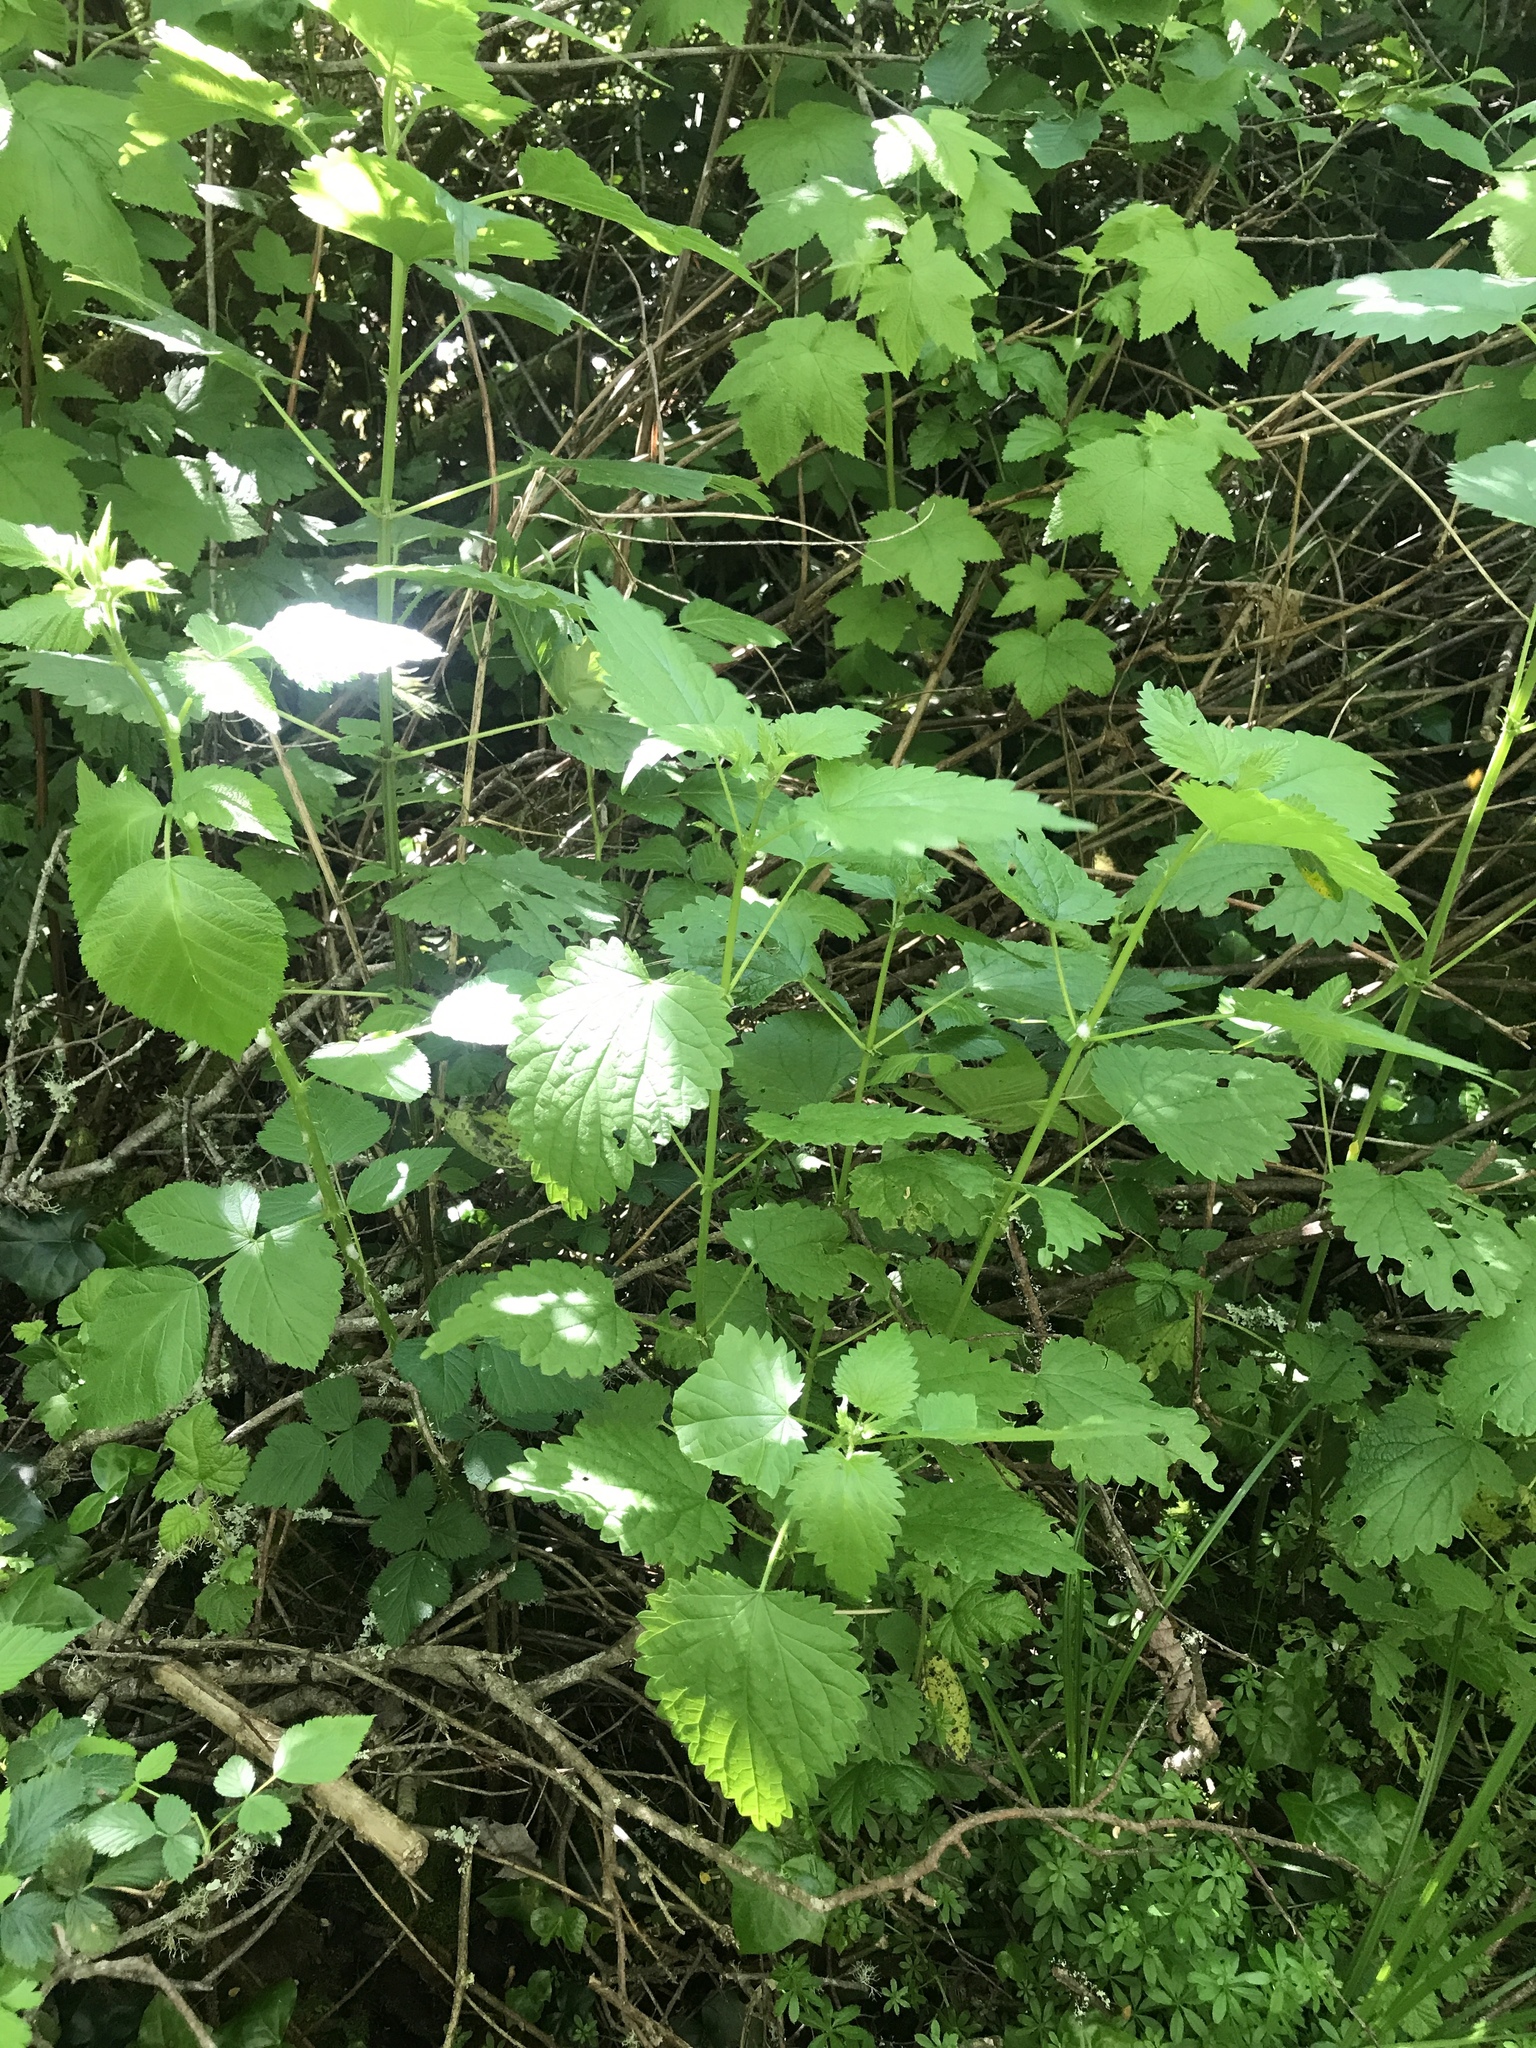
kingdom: Plantae
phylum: Tracheophyta
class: Magnoliopsida
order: Rosales
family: Urticaceae
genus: Urtica
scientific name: Urtica dioica
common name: Common nettle
